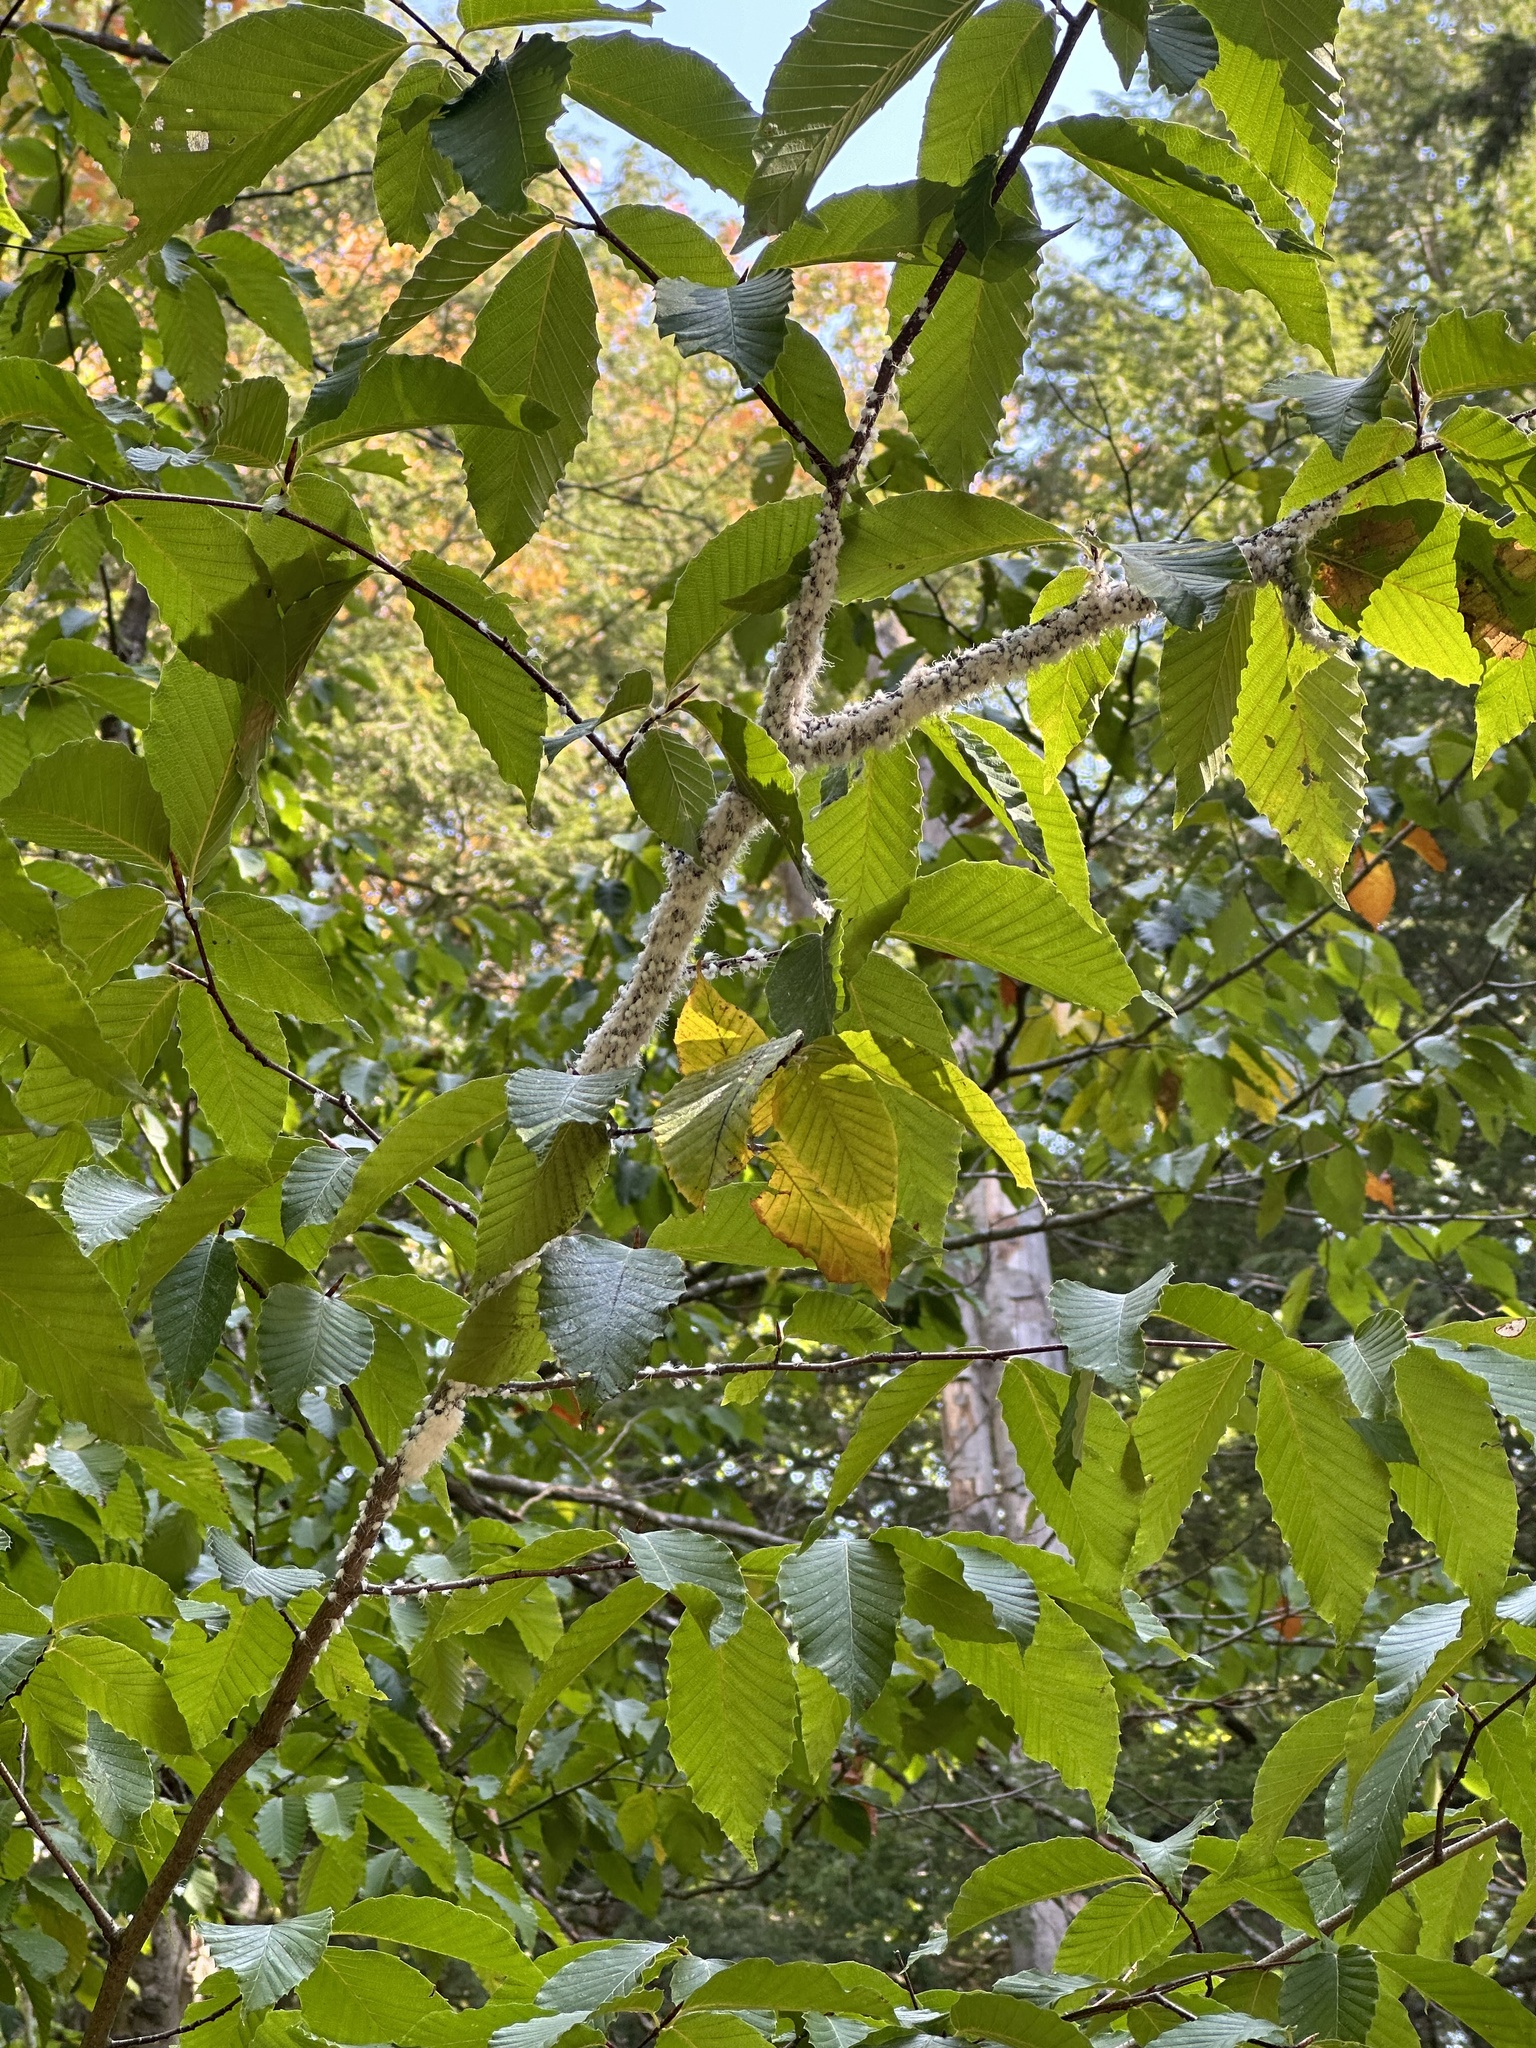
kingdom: Animalia
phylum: Arthropoda
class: Insecta
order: Hemiptera
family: Aphididae
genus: Grylloprociphilus
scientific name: Grylloprociphilus imbricator
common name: Beech blight aphid
